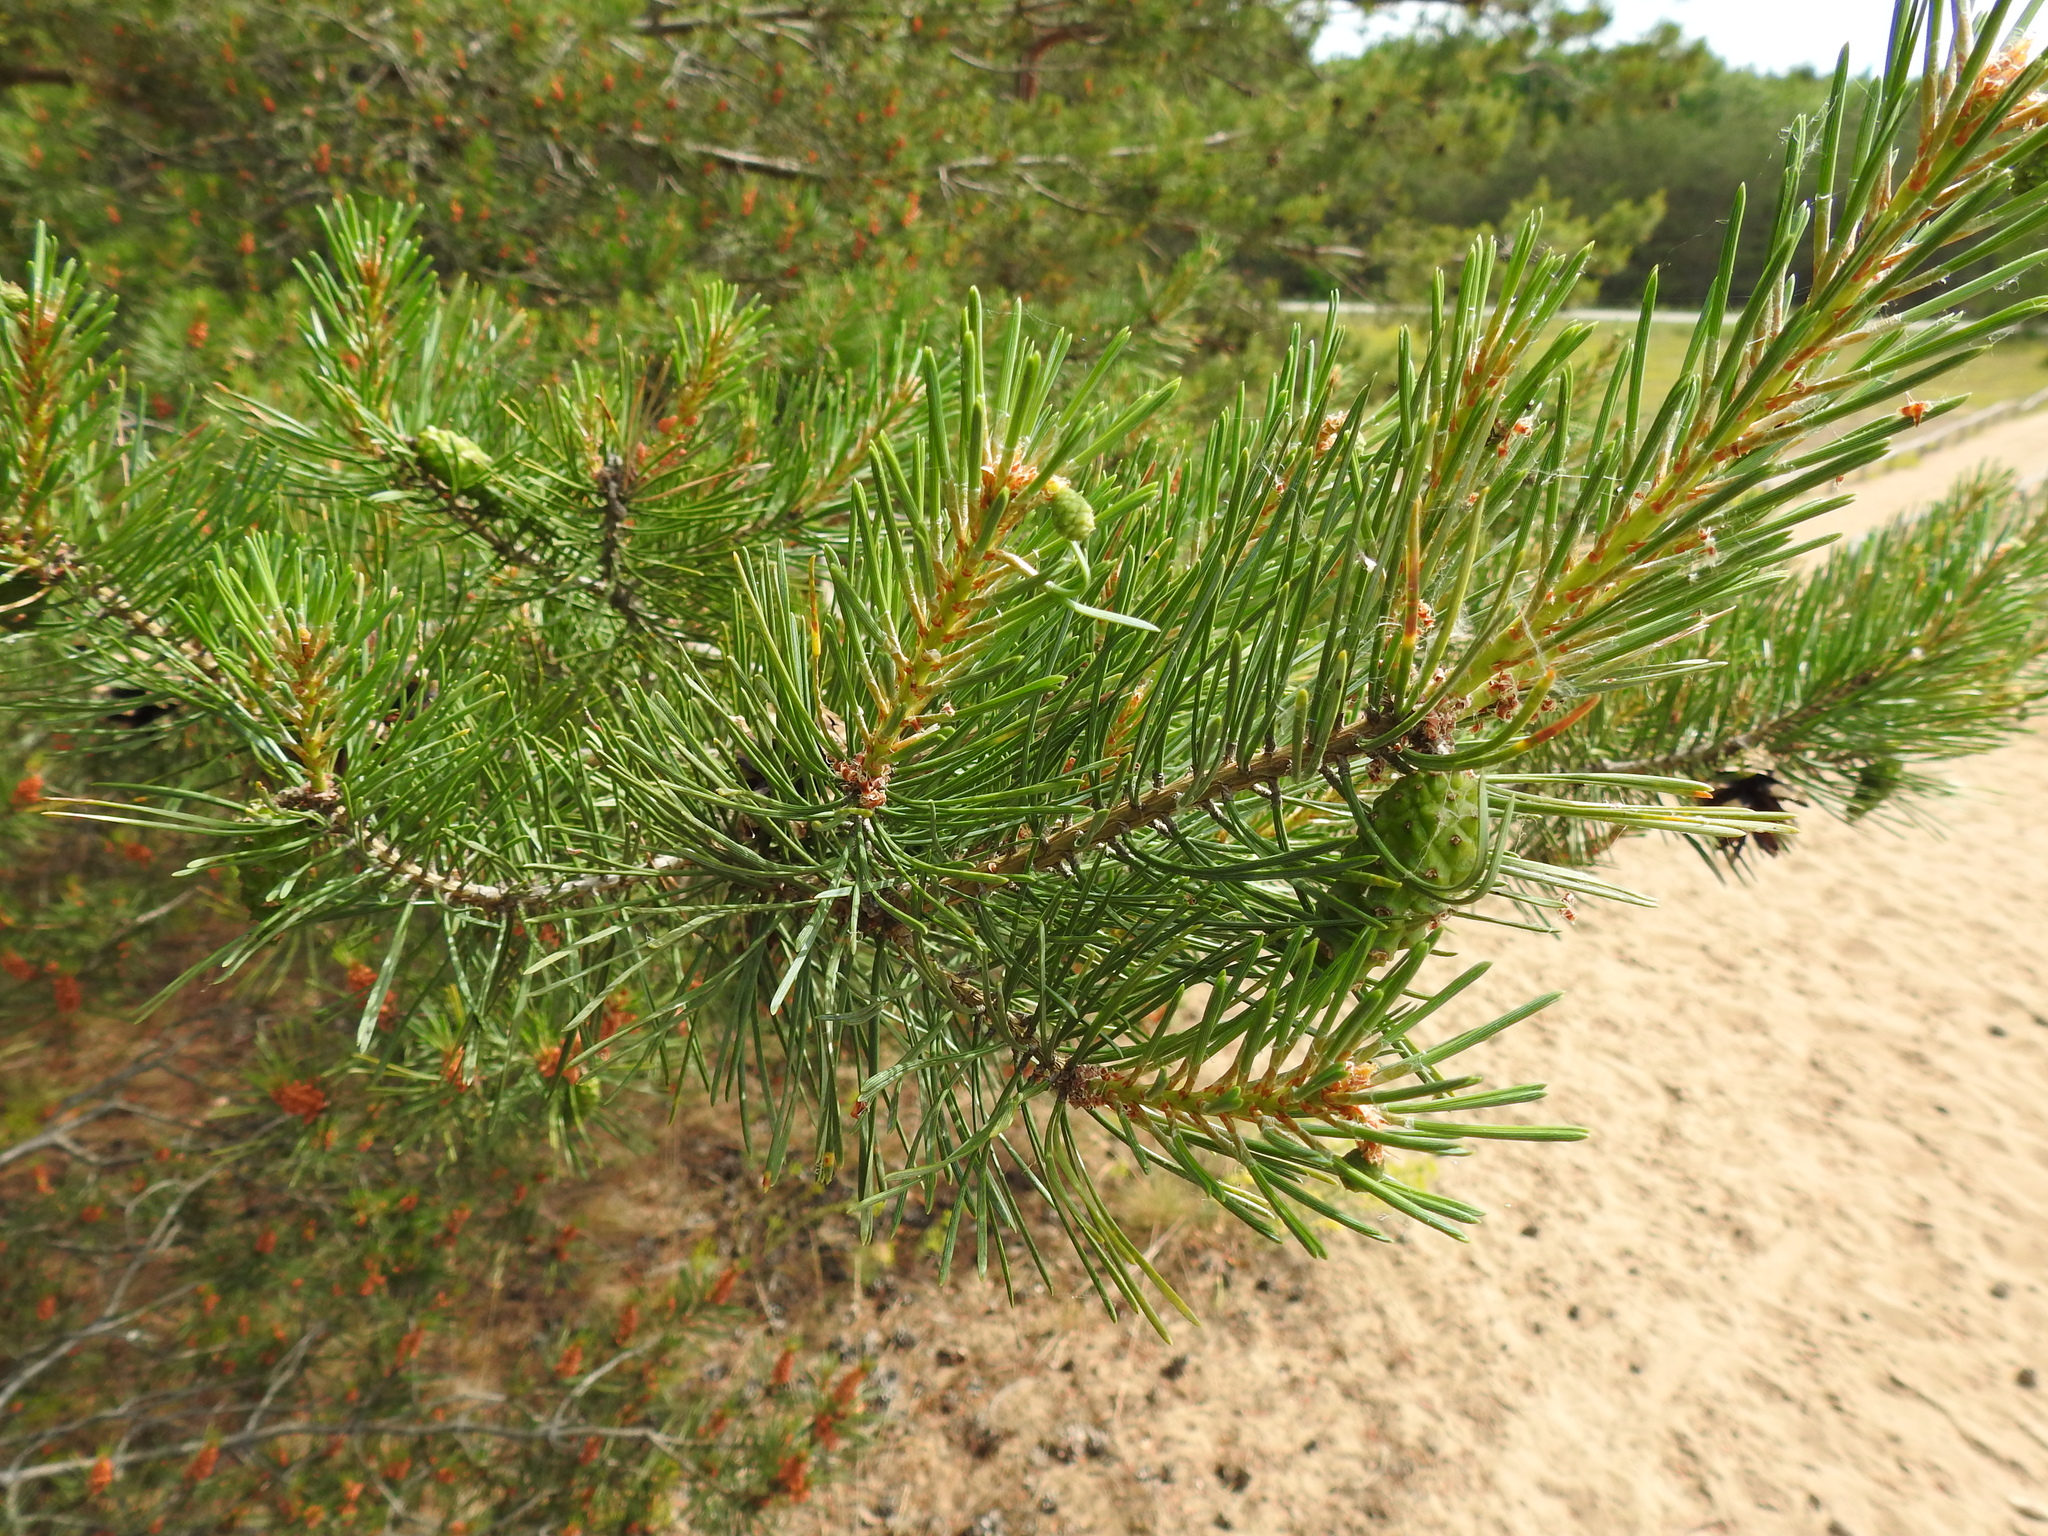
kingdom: Plantae
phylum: Tracheophyta
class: Pinopsida
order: Pinales
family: Pinaceae
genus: Pinus
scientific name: Pinus sylvestris
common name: Scots pine
